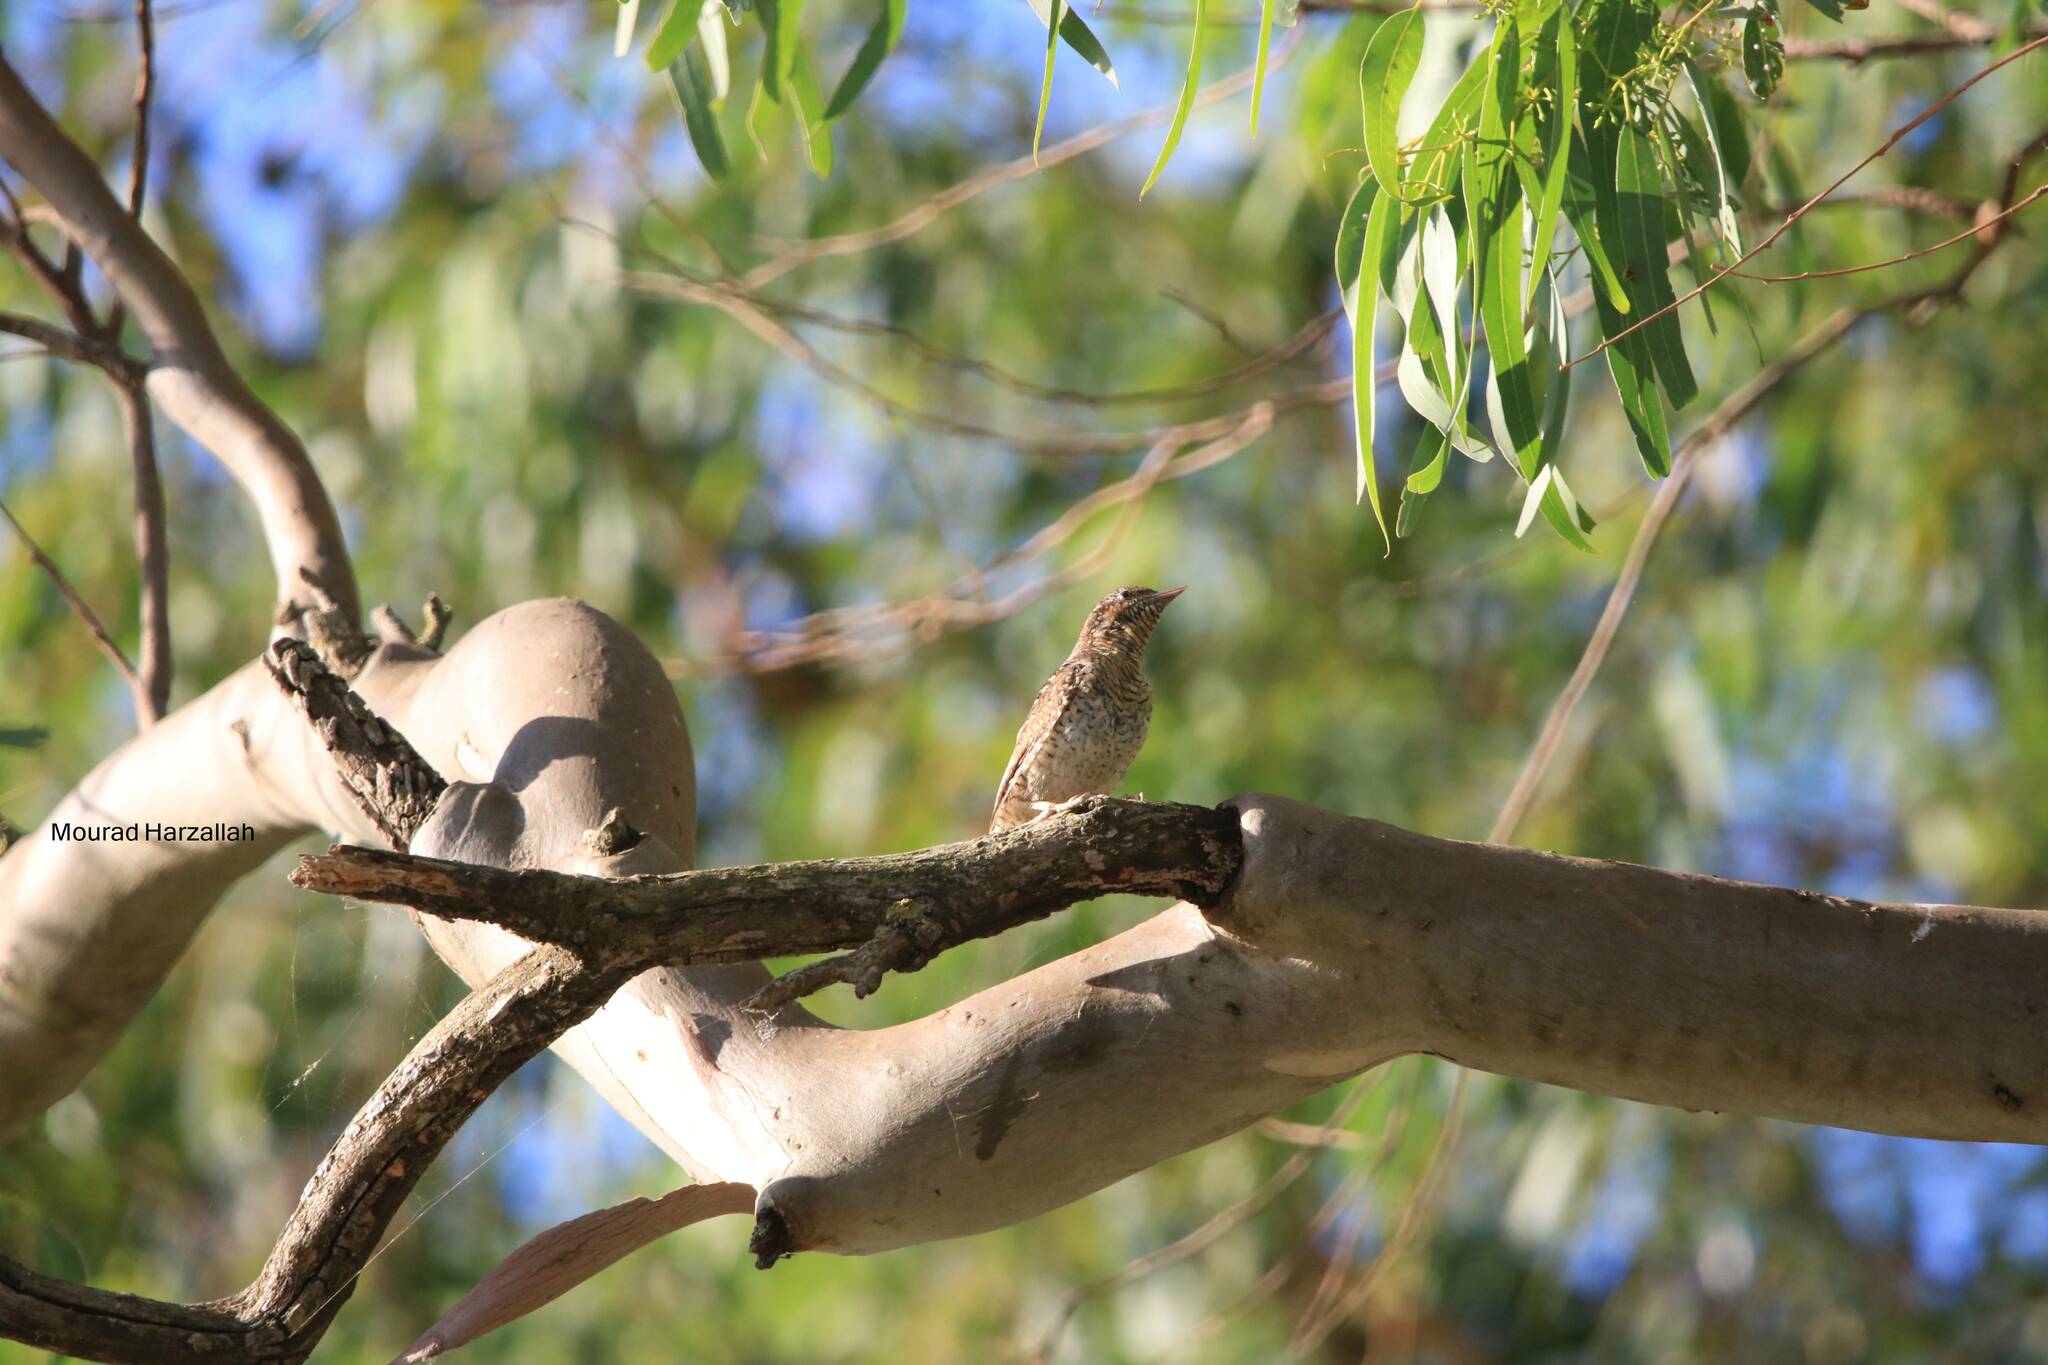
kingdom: Animalia
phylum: Chordata
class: Aves
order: Piciformes
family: Picidae
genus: Jynx
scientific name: Jynx torquilla
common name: Eurasian wryneck
